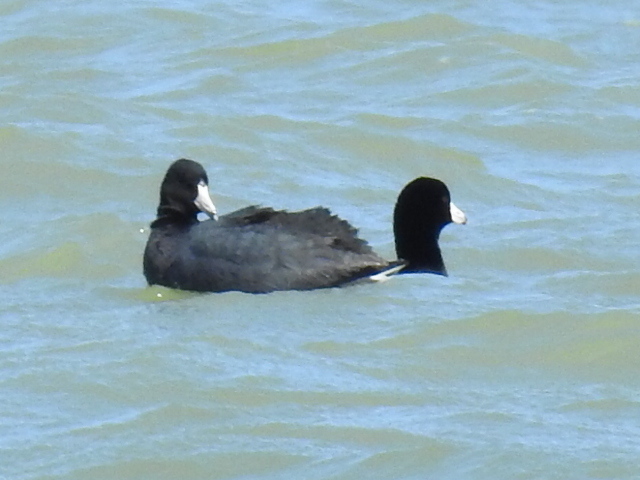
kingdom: Animalia
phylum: Chordata
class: Aves
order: Gruiformes
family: Rallidae
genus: Fulica
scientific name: Fulica americana
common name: American coot
